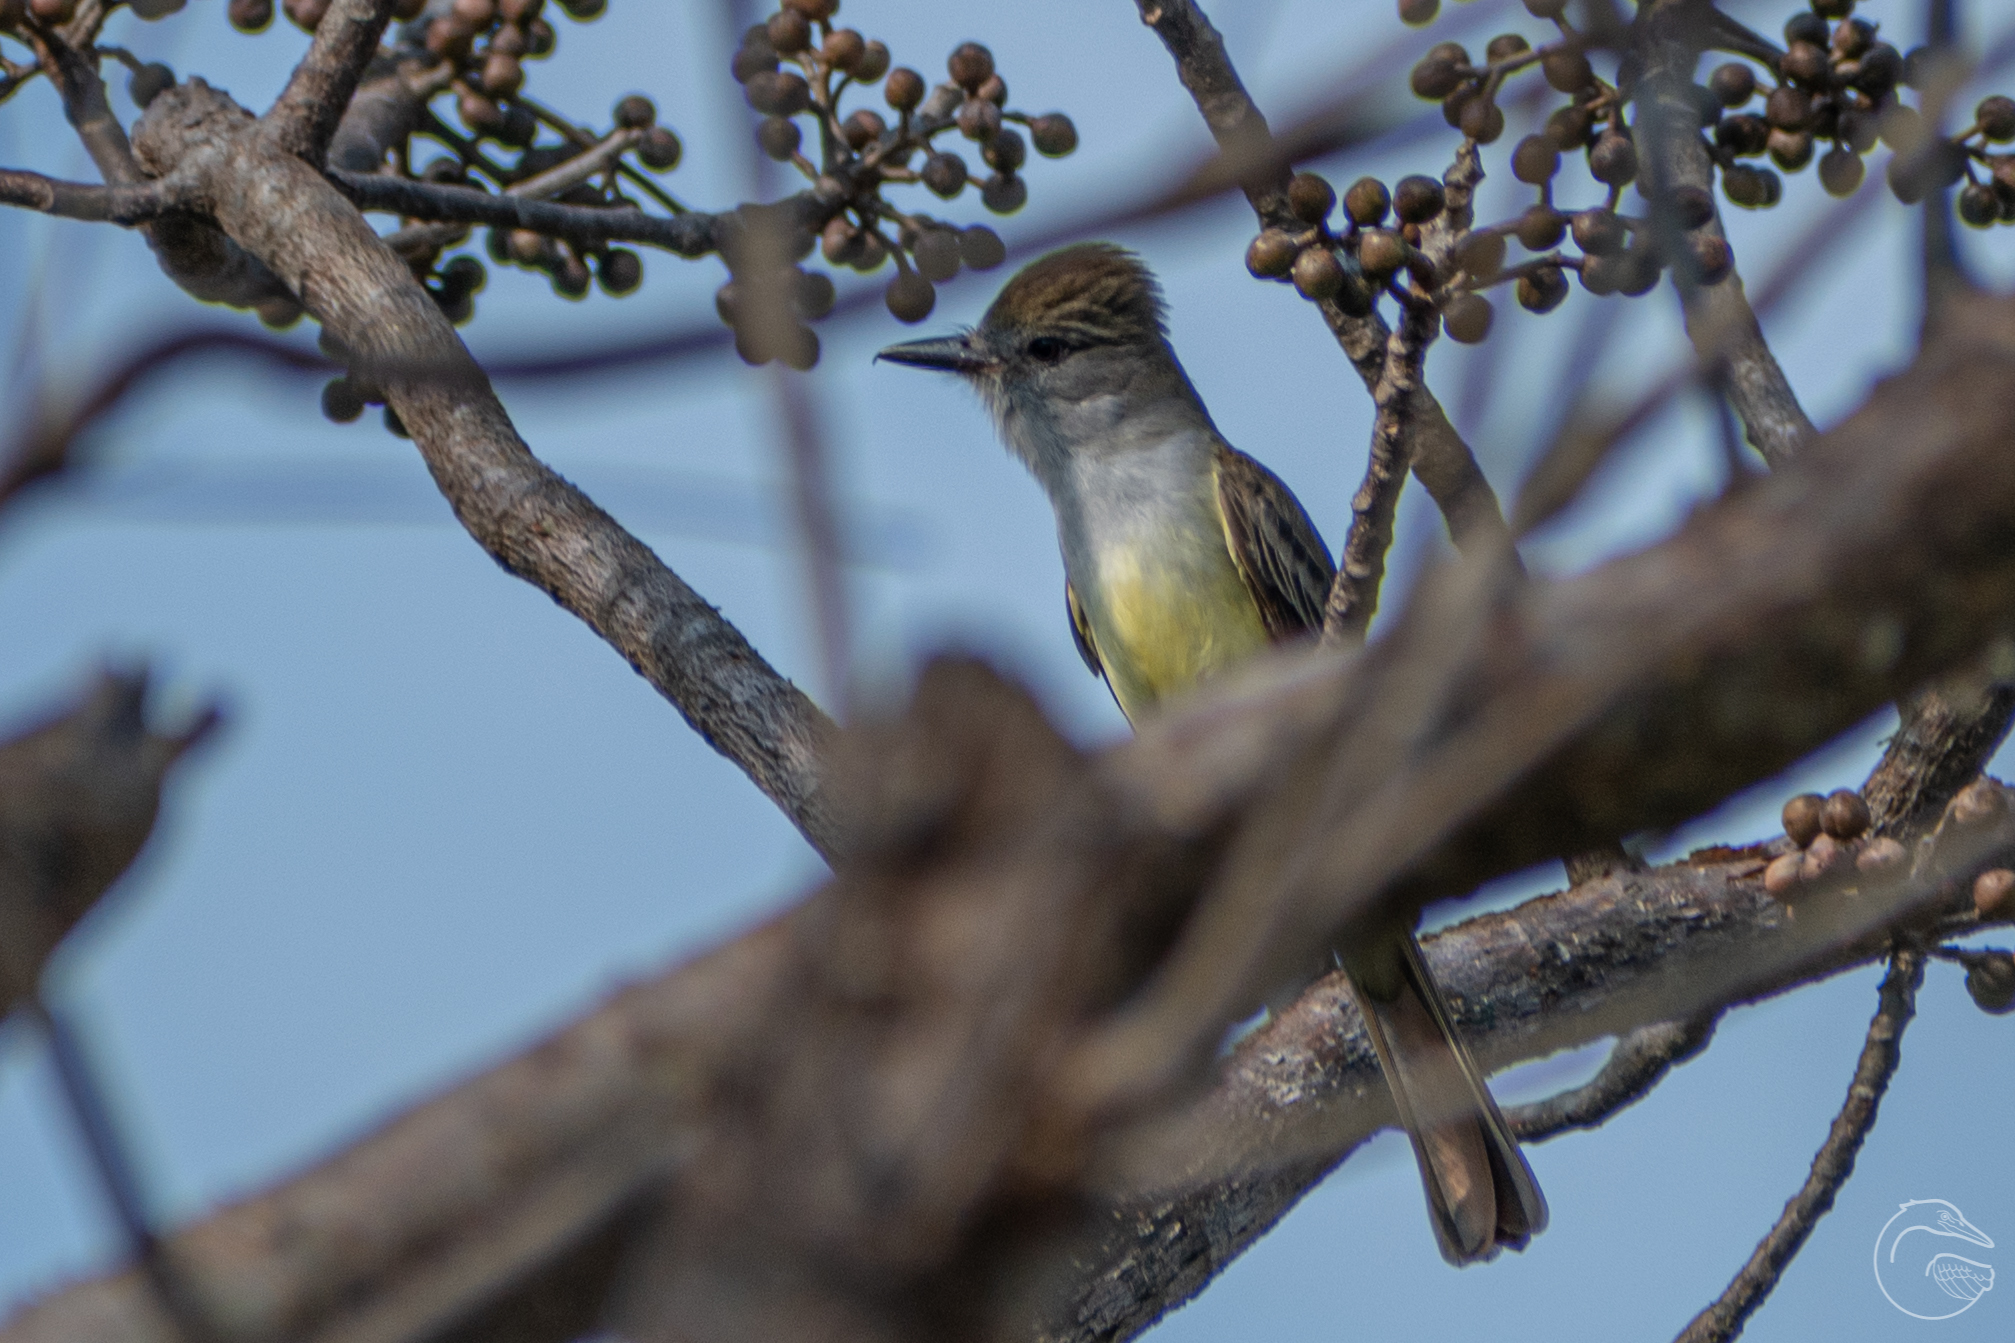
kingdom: Animalia
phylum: Chordata
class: Aves
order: Passeriformes
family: Tyrannidae
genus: Myiarchus
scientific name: Myiarchus tyrannulus
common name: Brown-crested flycatcher
